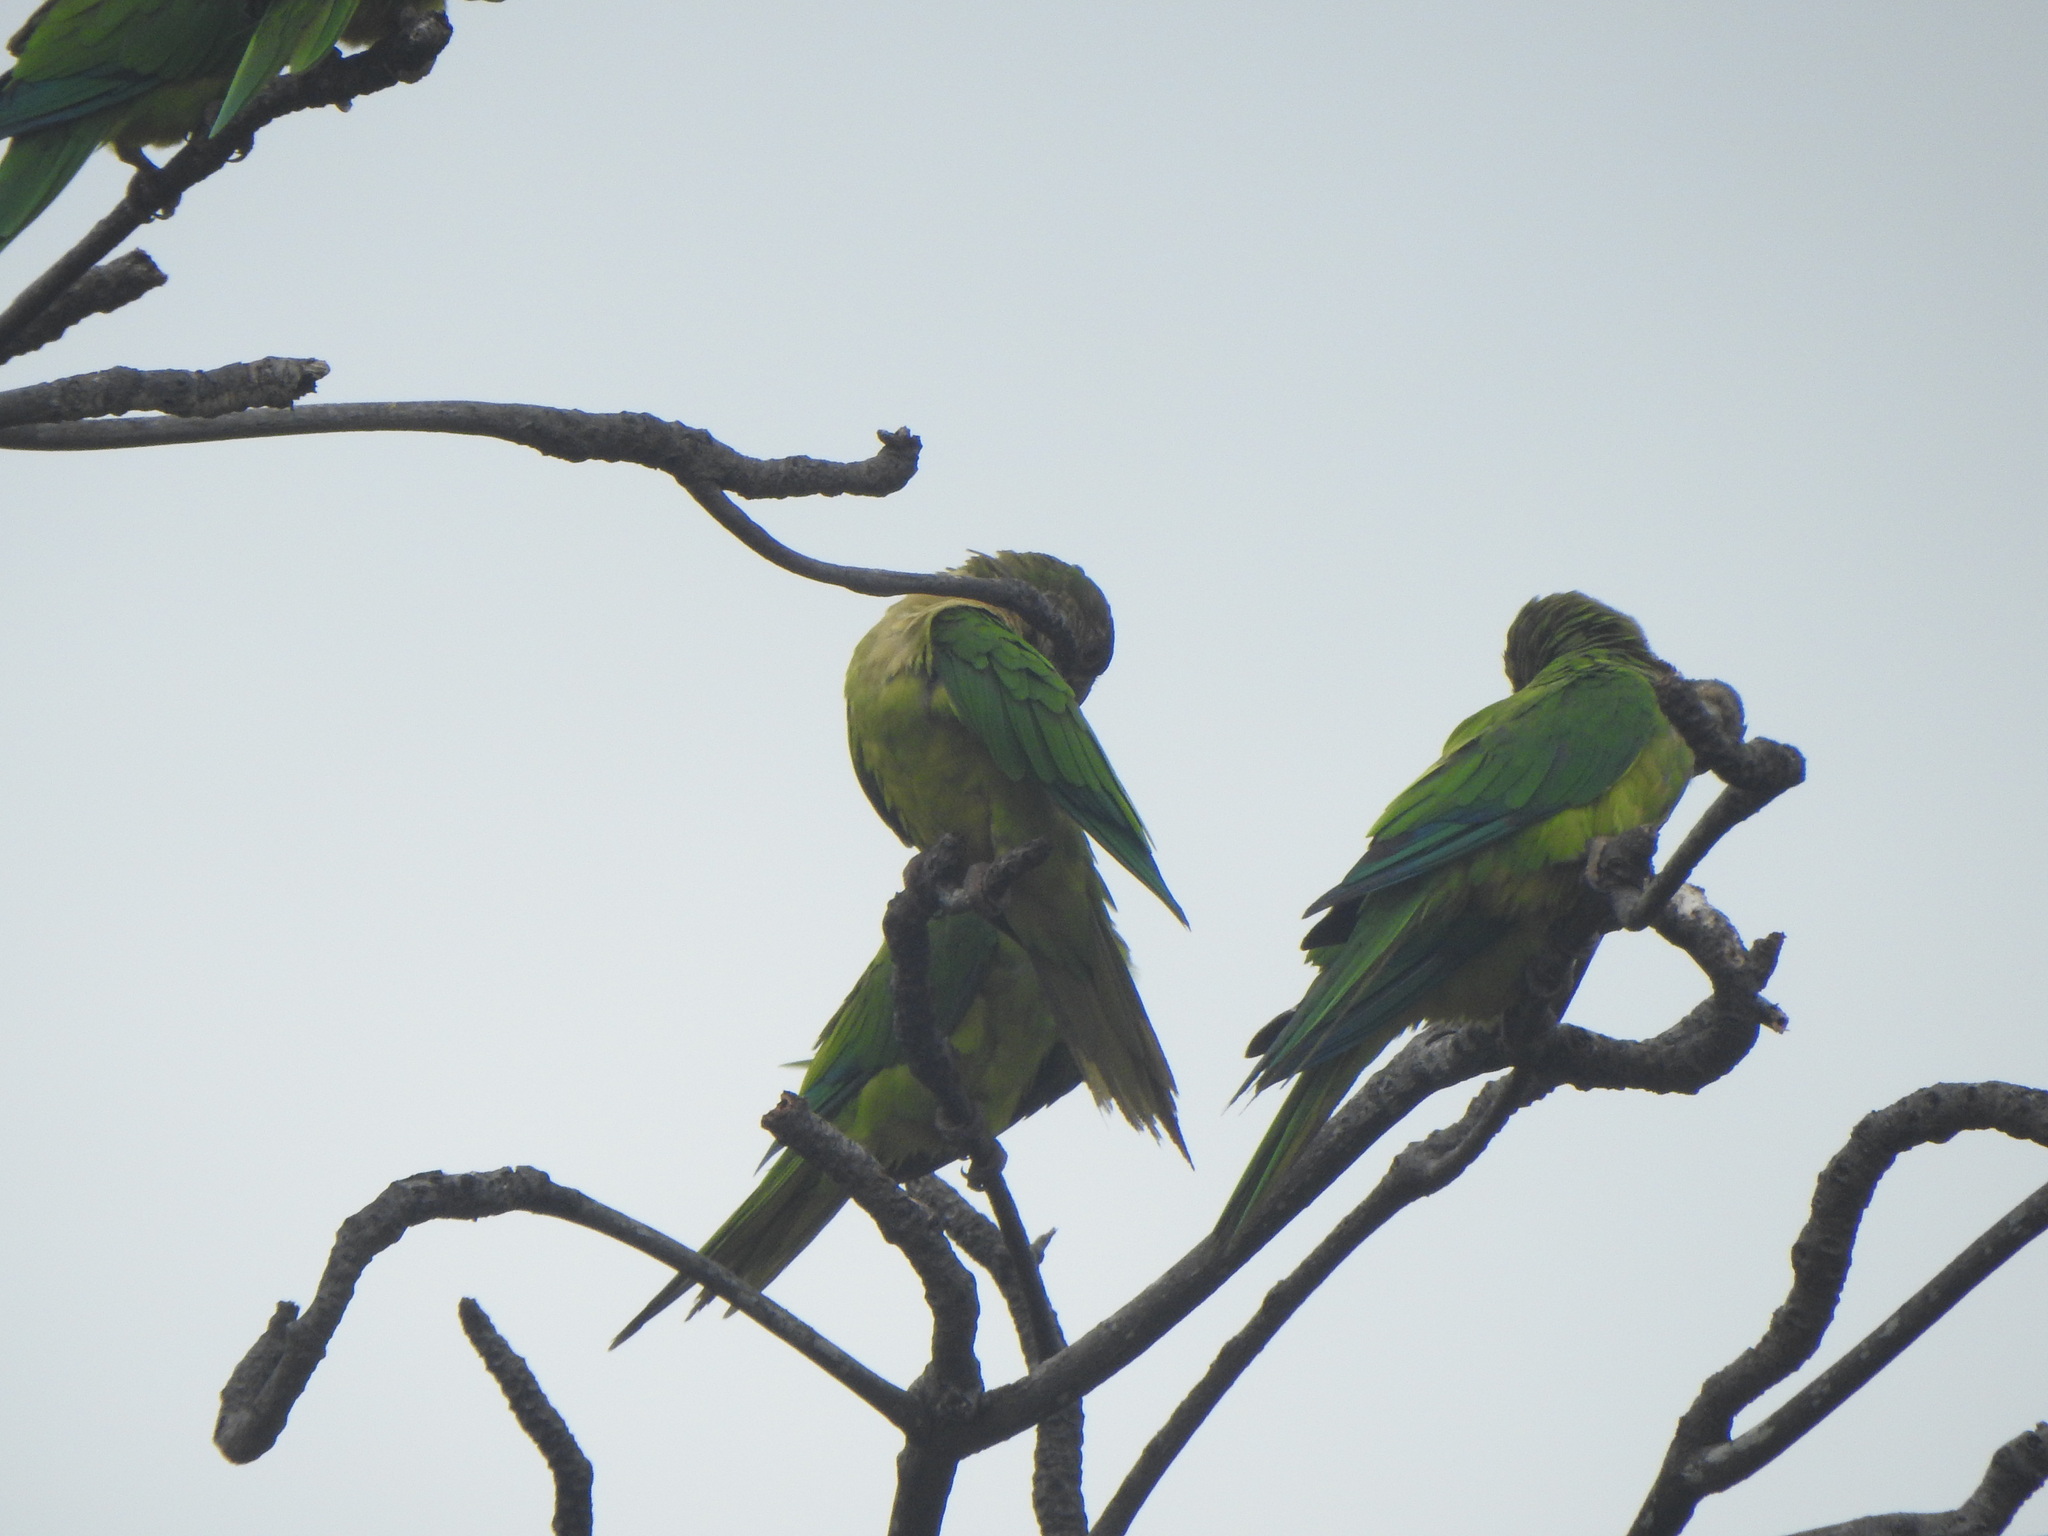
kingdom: Animalia
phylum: Chordata
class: Aves
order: Psittaciformes
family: Psittacidae
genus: Aratinga
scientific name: Aratinga pertinax
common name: Brown-throated parakeet
